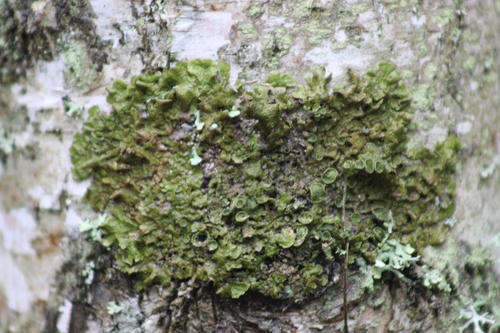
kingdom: Fungi
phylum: Ascomycota
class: Lecanoromycetes
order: Lecanorales
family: Parmeliaceae
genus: Melanohalea
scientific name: Melanohalea olivacea
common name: Spotted camouflage lichen
